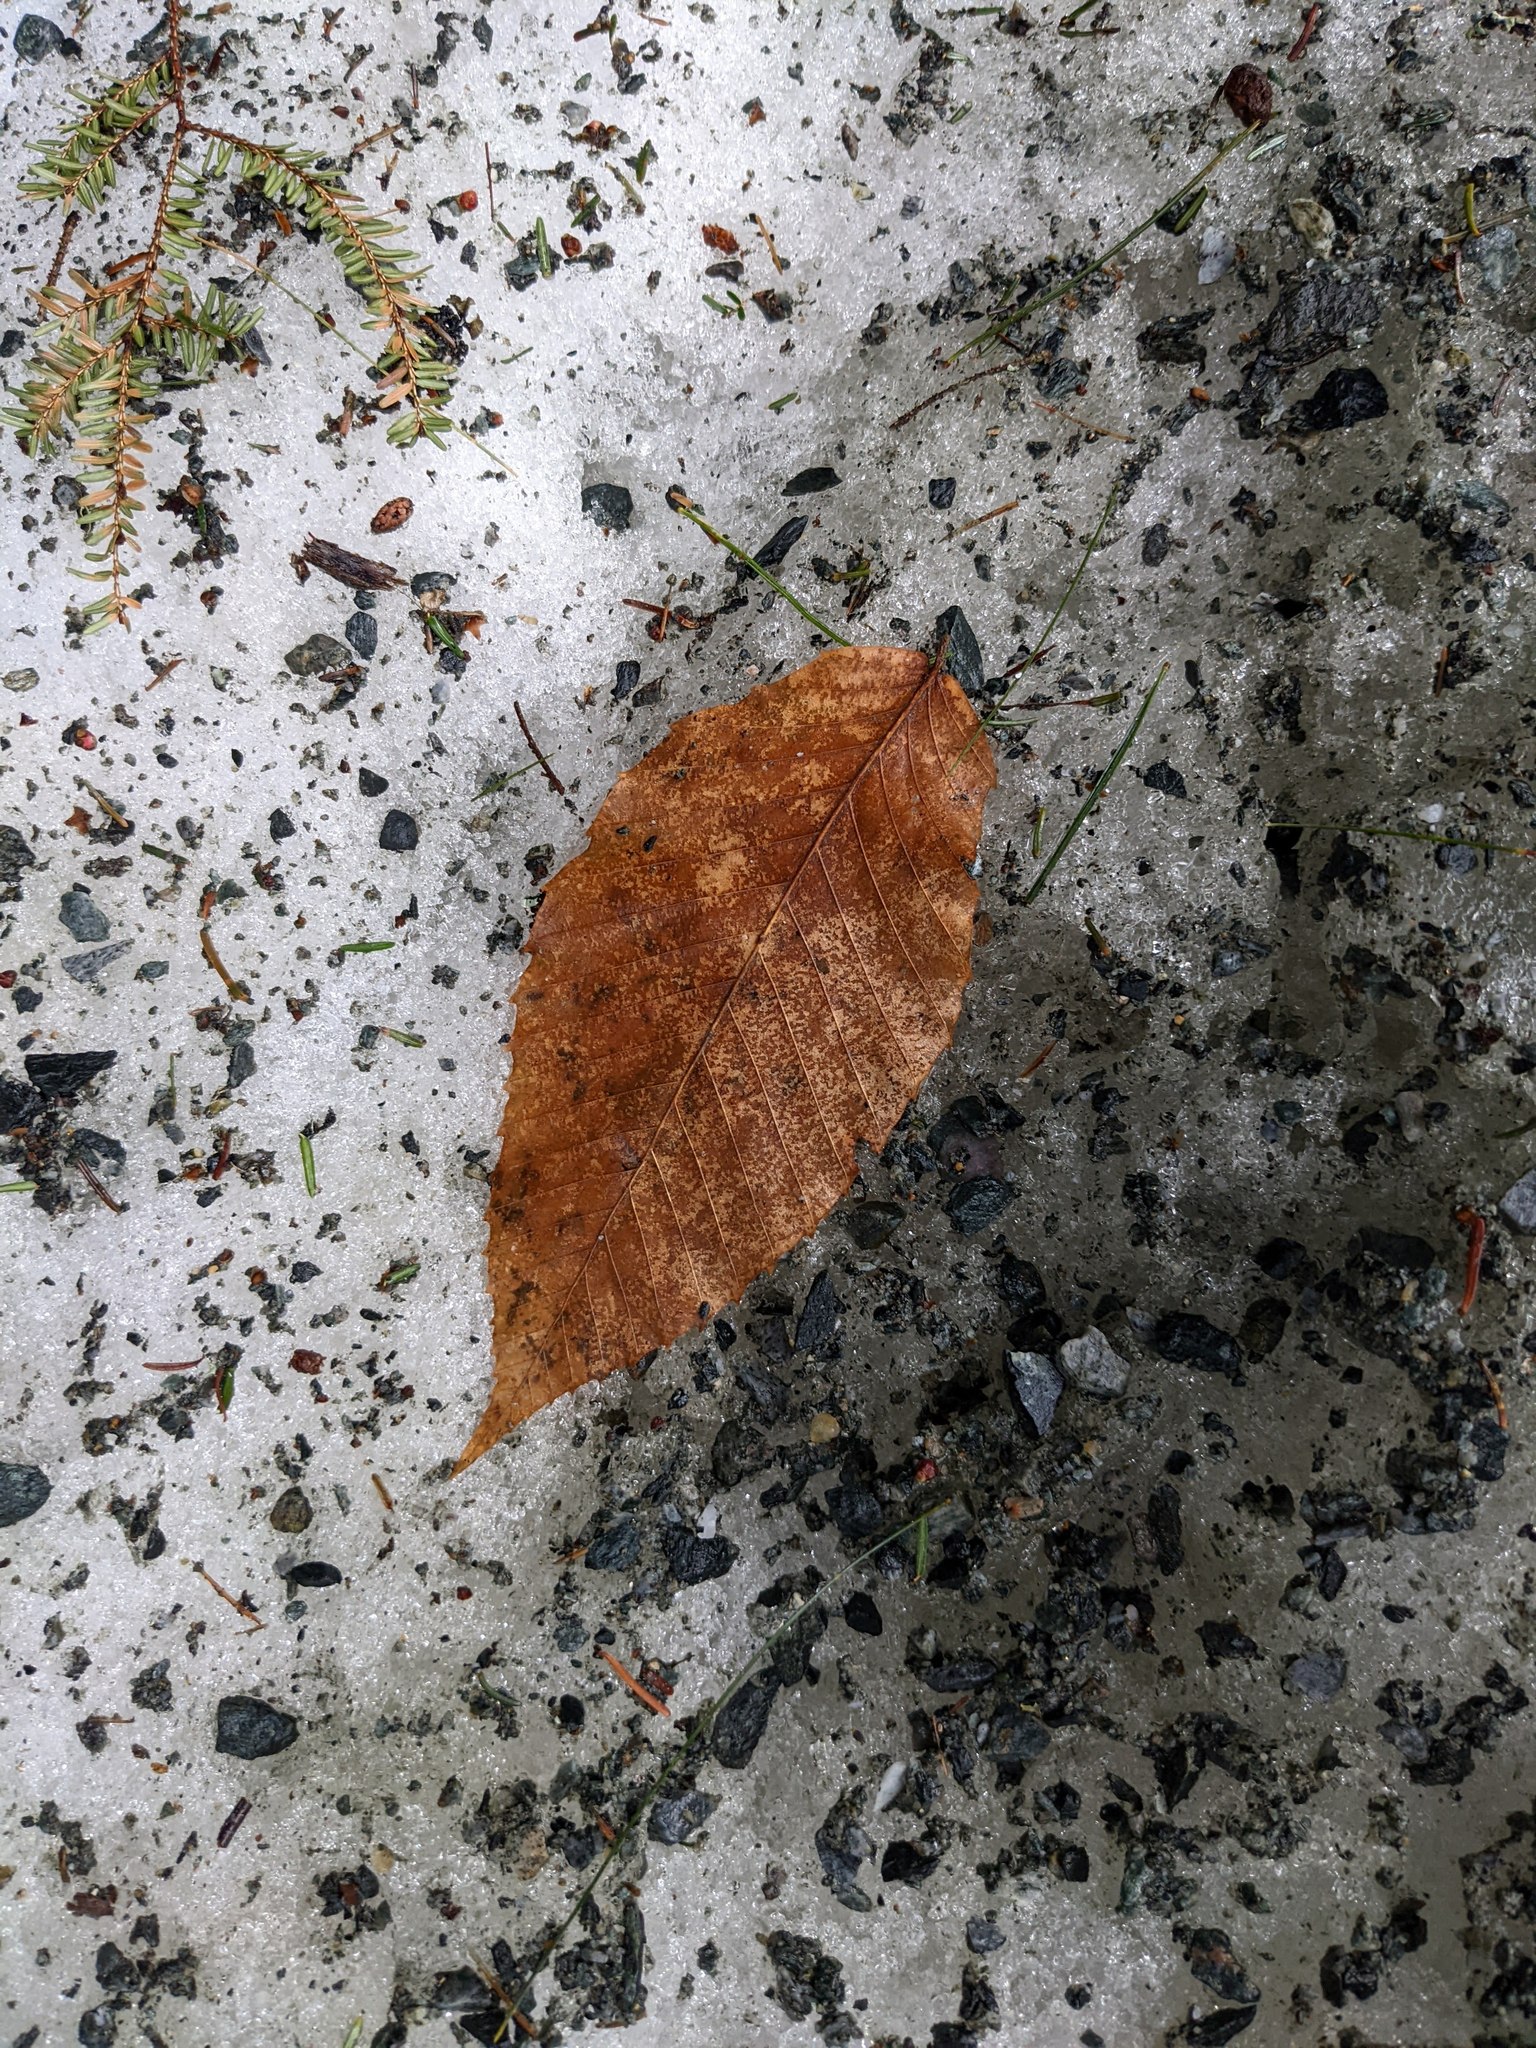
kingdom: Plantae
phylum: Tracheophyta
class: Magnoliopsida
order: Fagales
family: Fagaceae
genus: Fagus
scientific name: Fagus grandifolia
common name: American beech
